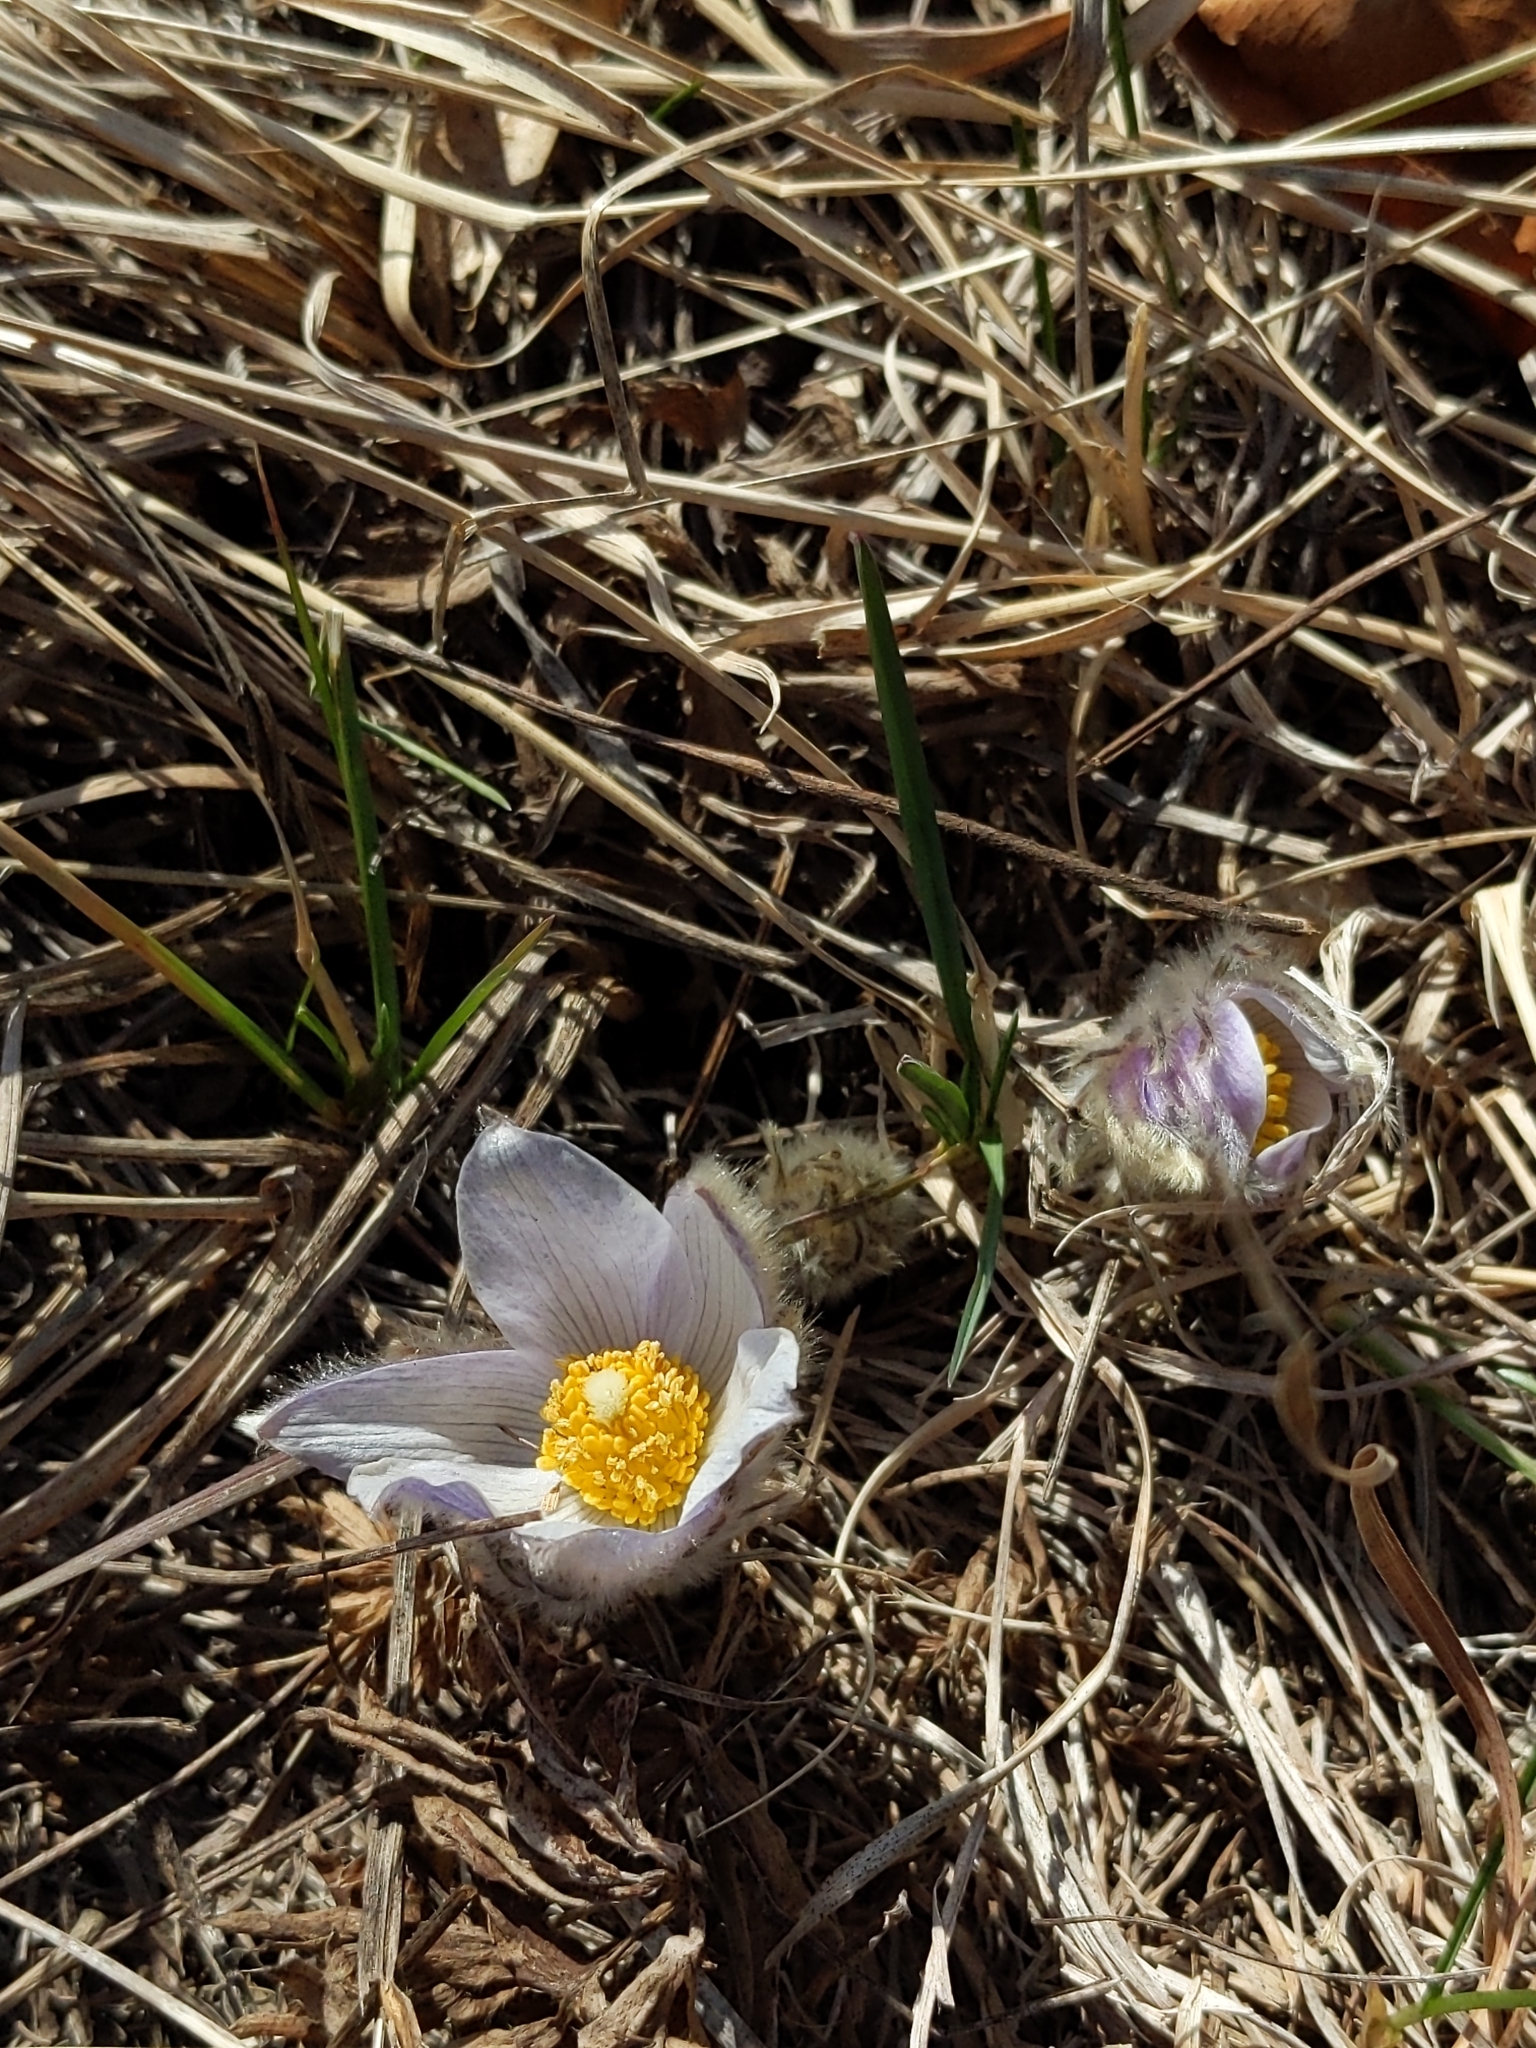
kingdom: Plantae
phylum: Tracheophyta
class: Magnoliopsida
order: Ranunculales
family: Ranunculaceae
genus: Pulsatilla
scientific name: Pulsatilla nuttalliana
